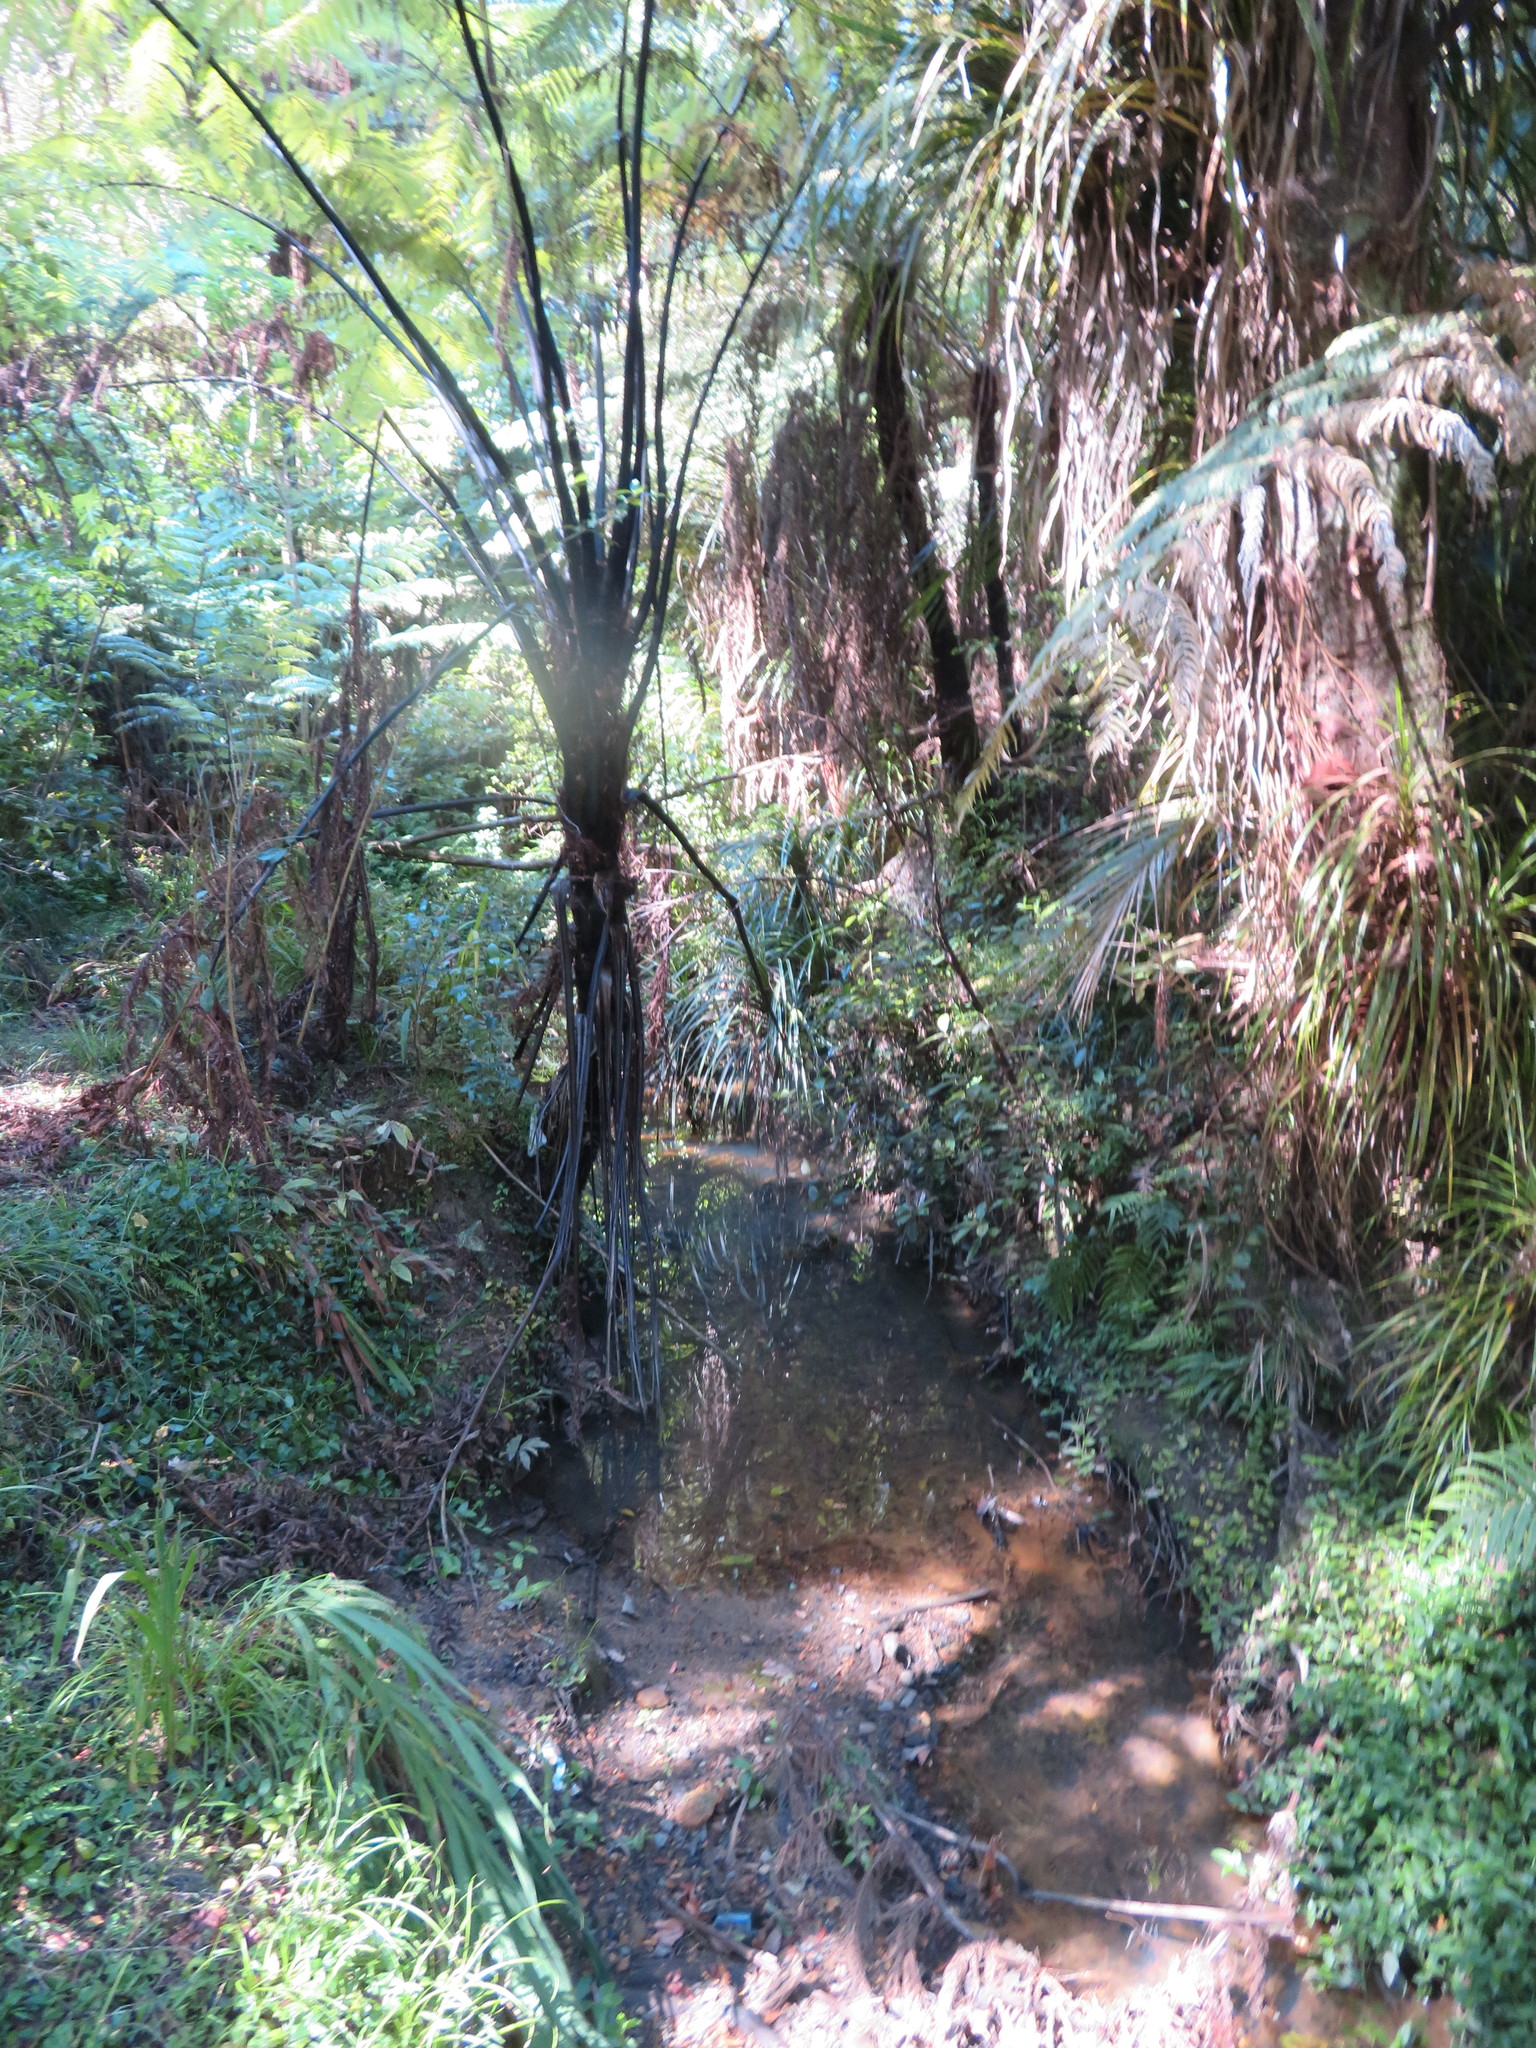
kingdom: Plantae
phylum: Tracheophyta
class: Liliopsida
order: Commelinales
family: Commelinaceae
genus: Tradescantia
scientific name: Tradescantia fluminensis
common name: Wandering-jew
